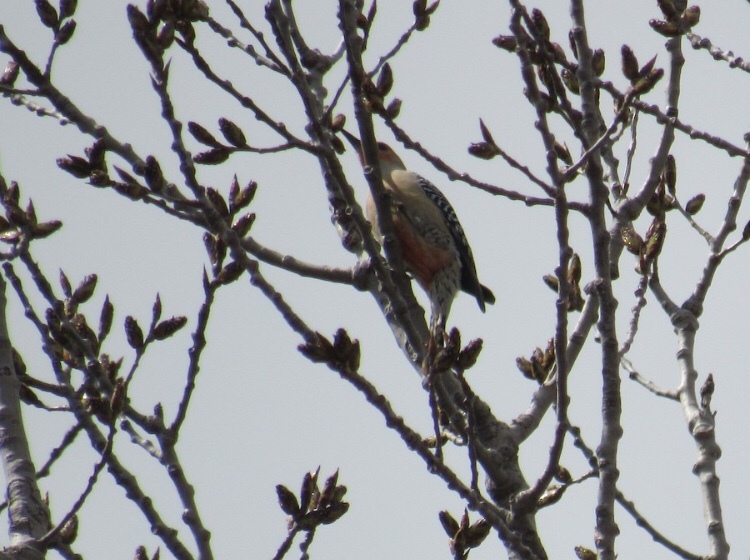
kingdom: Animalia
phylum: Chordata
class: Aves
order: Piciformes
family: Picidae
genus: Melanerpes
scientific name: Melanerpes carolinus
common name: Red-bellied woodpecker
